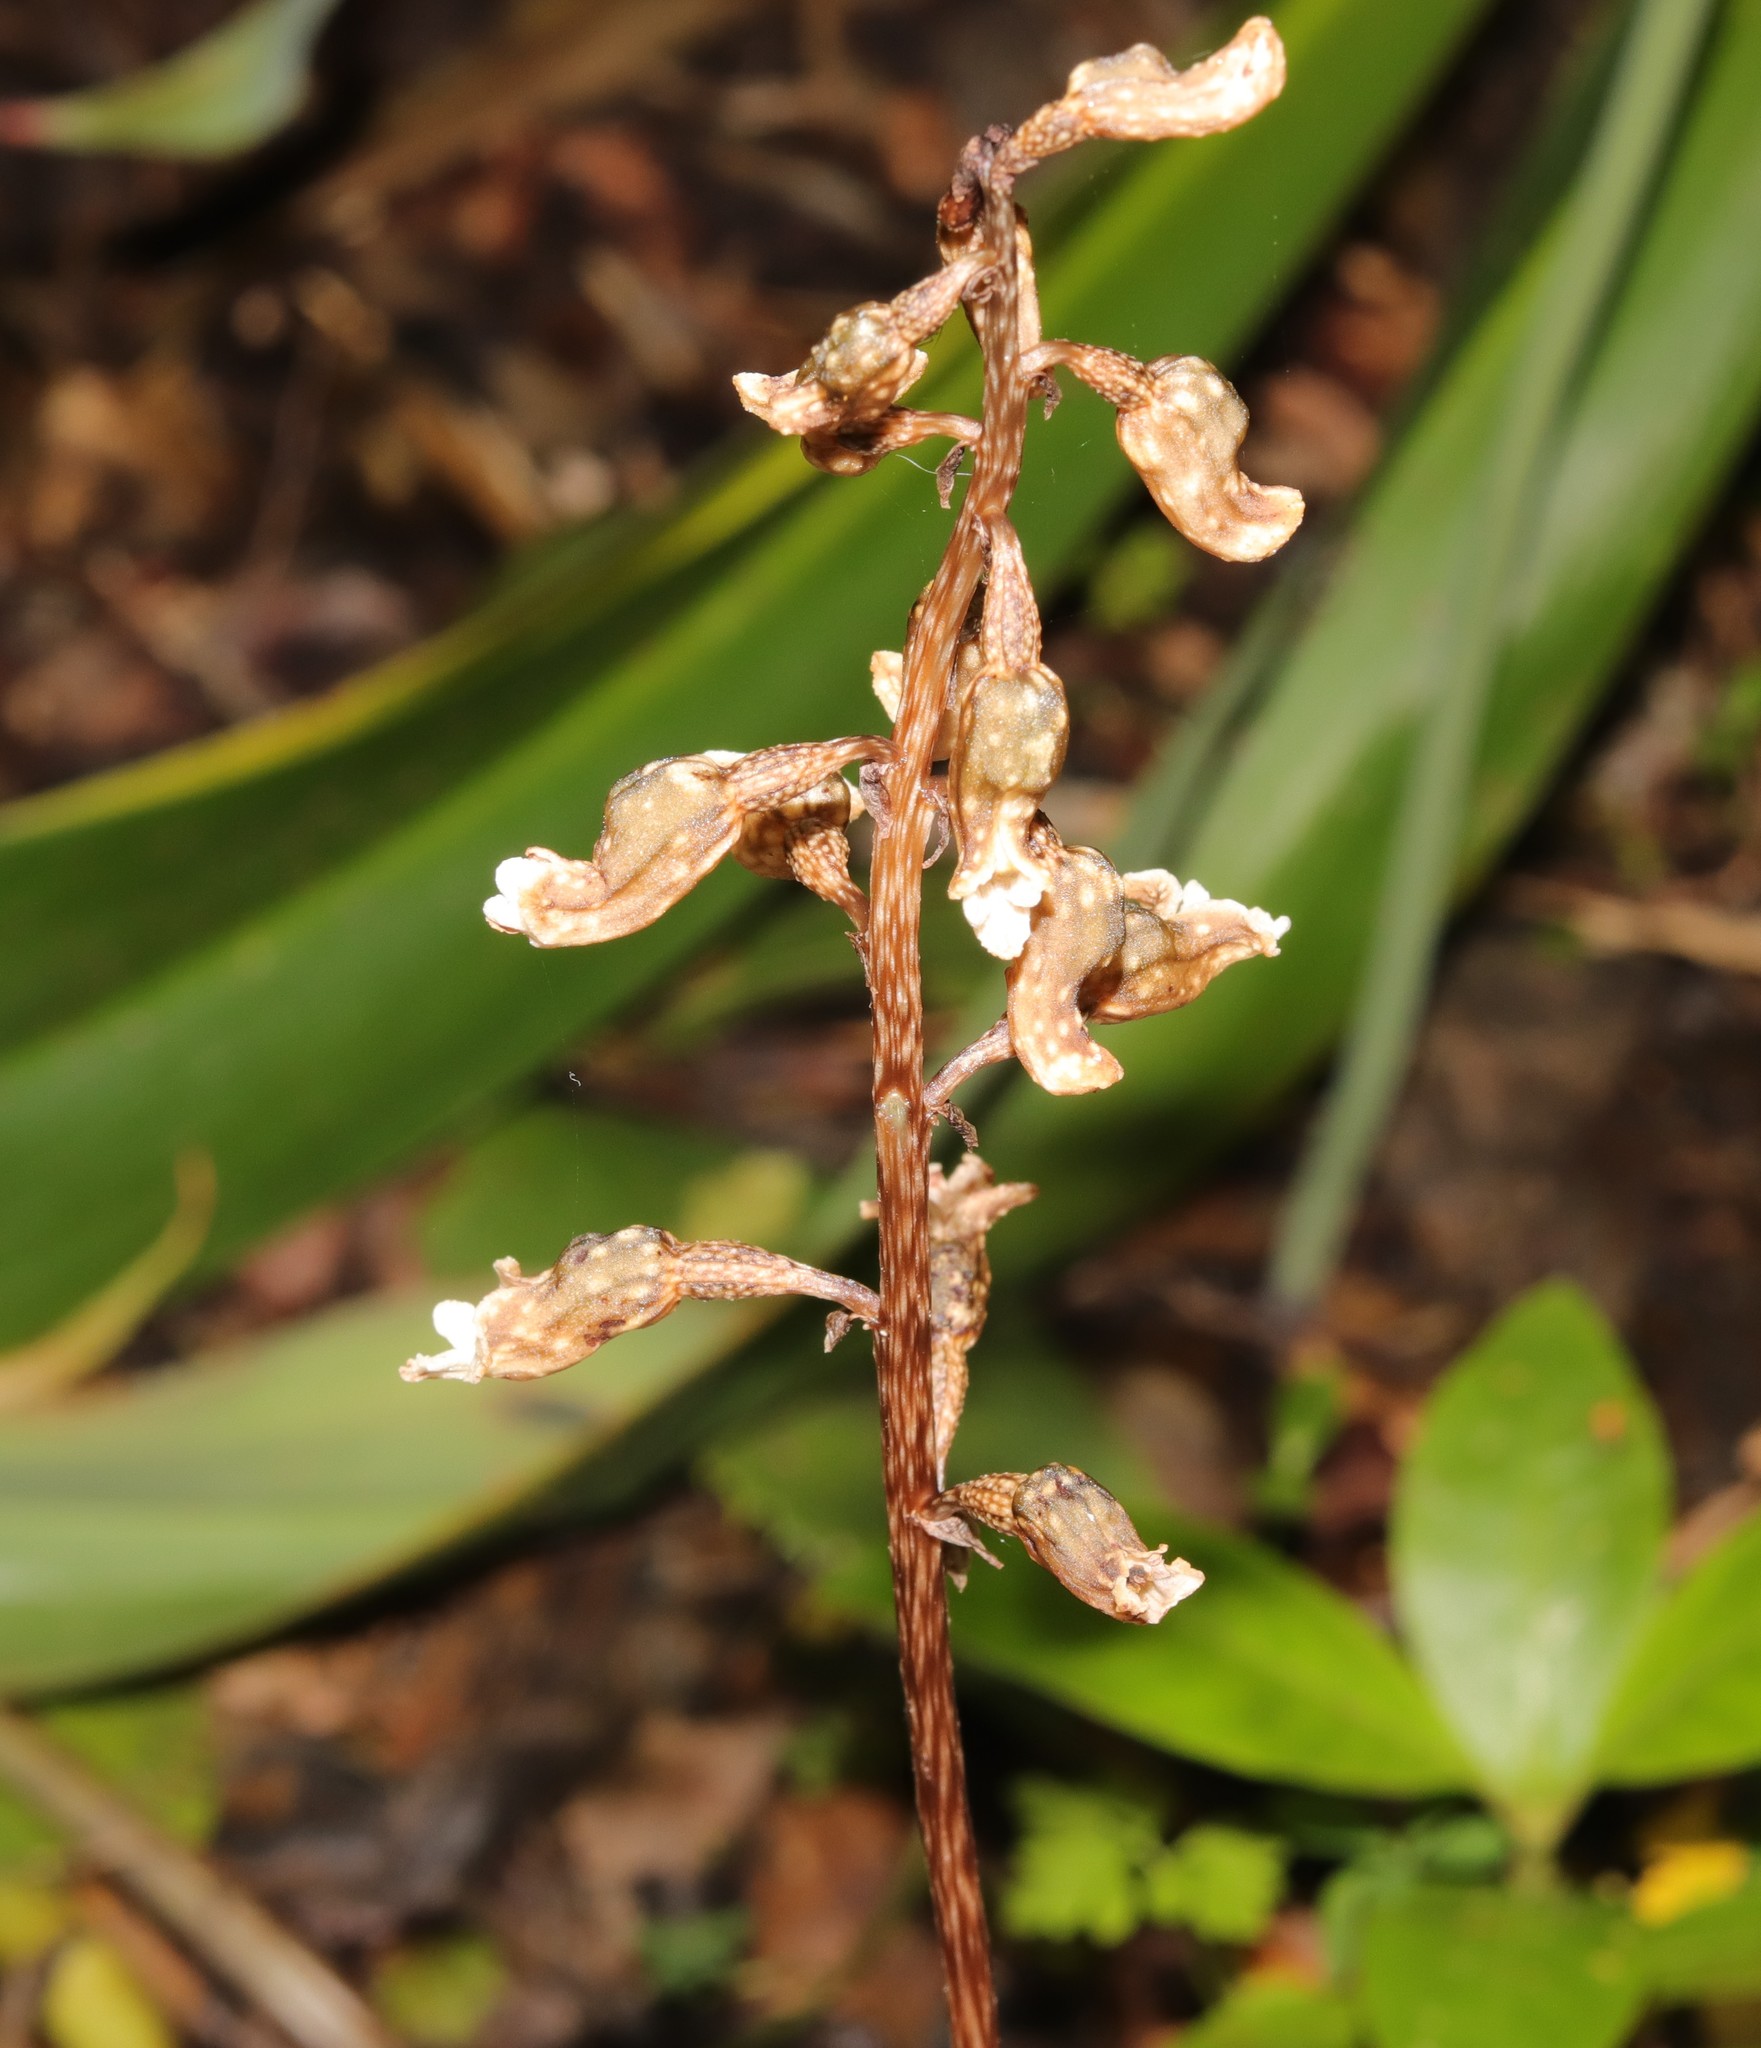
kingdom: Plantae
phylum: Tracheophyta
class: Liliopsida
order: Asparagales
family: Orchidaceae
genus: Gastrodia
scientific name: Gastrodia cunninghamii
